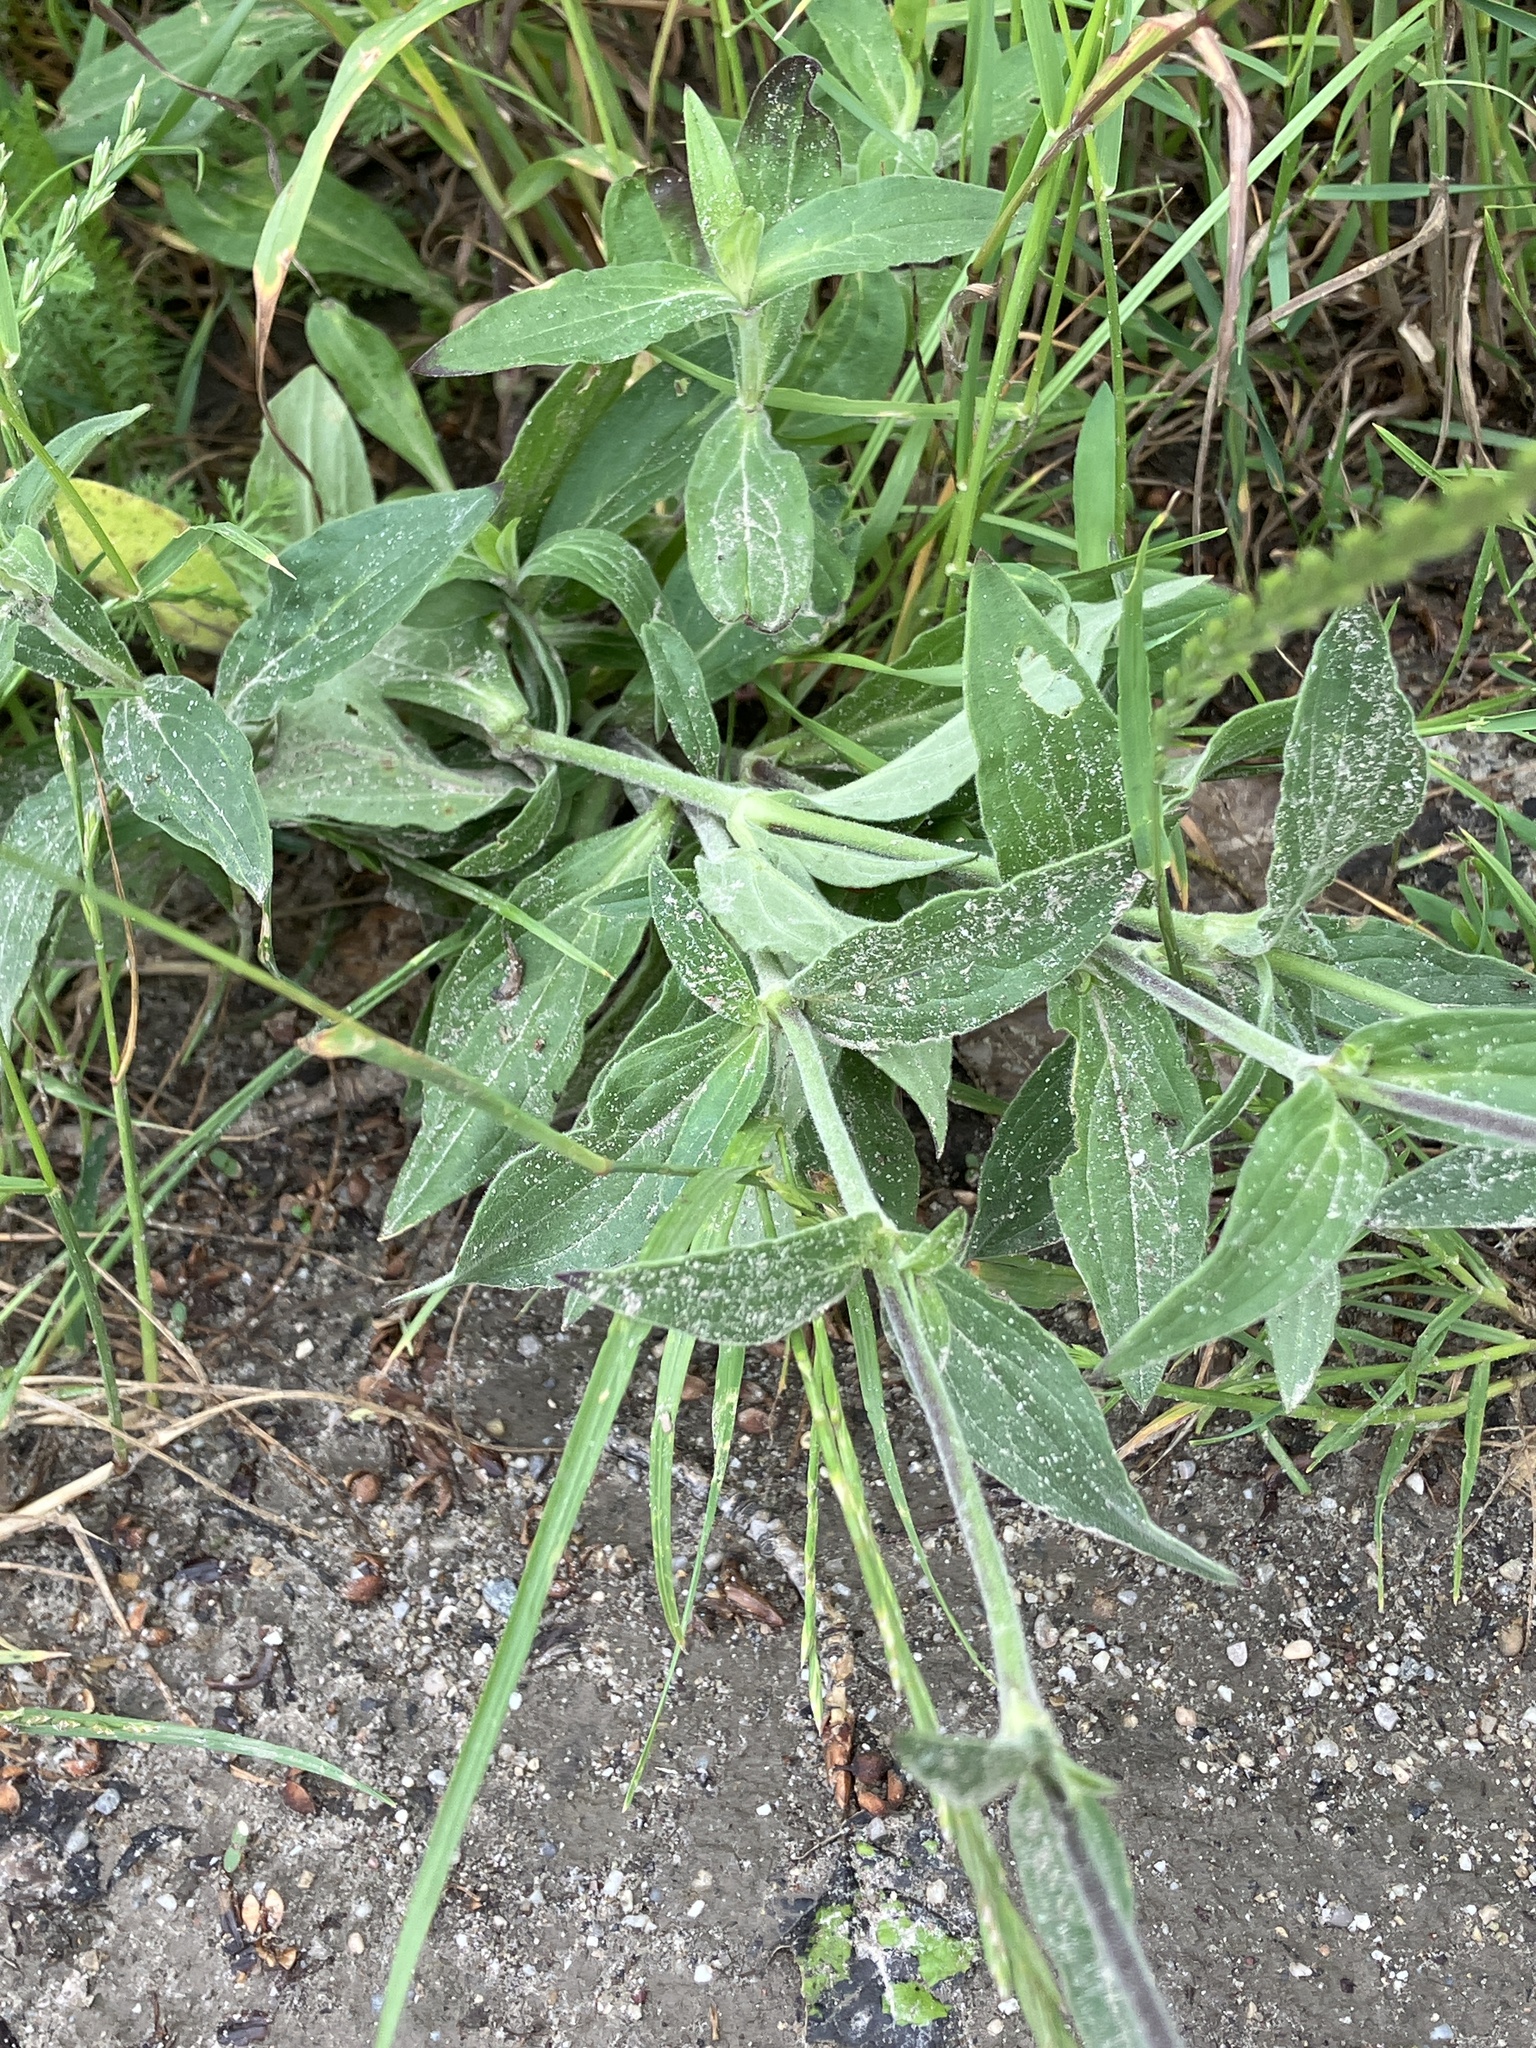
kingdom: Plantae
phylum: Tracheophyta
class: Magnoliopsida
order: Caryophyllales
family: Caryophyllaceae
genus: Silene
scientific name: Silene latifolia
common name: White campion
